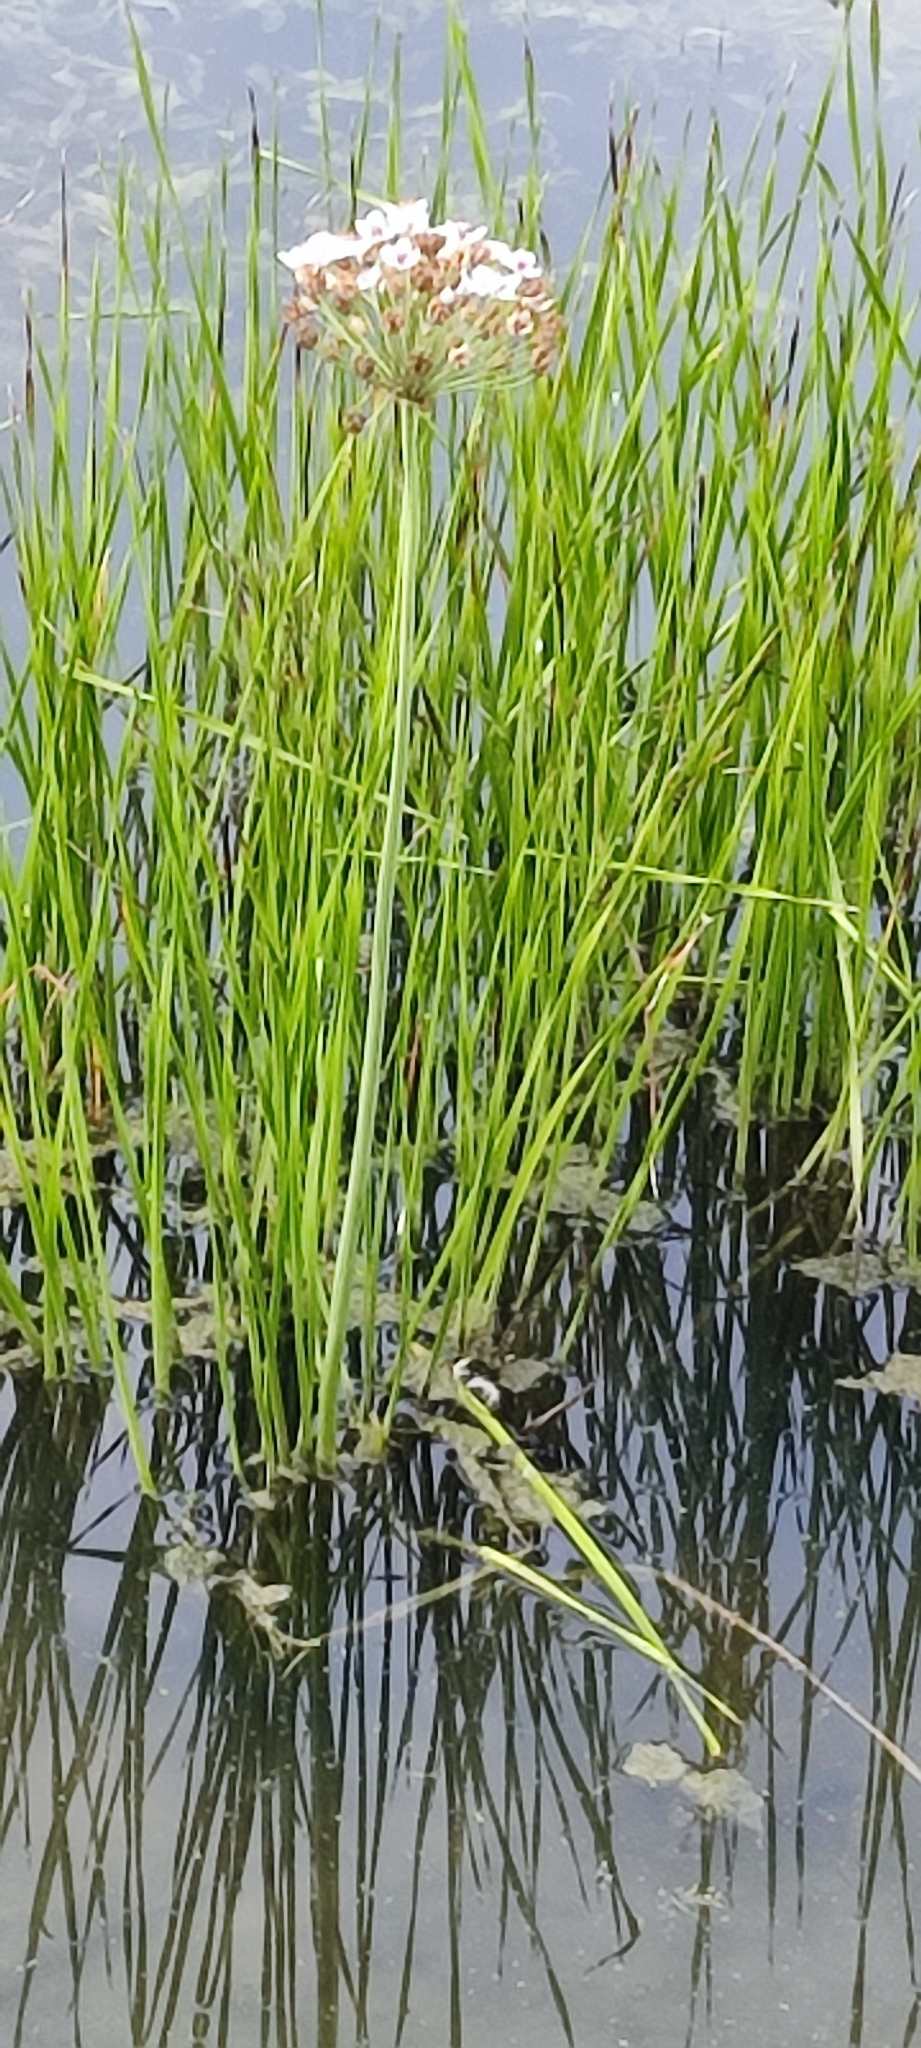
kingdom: Plantae
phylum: Tracheophyta
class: Liliopsida
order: Alismatales
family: Butomaceae
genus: Butomus
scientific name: Butomus umbellatus
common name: Flowering-rush
